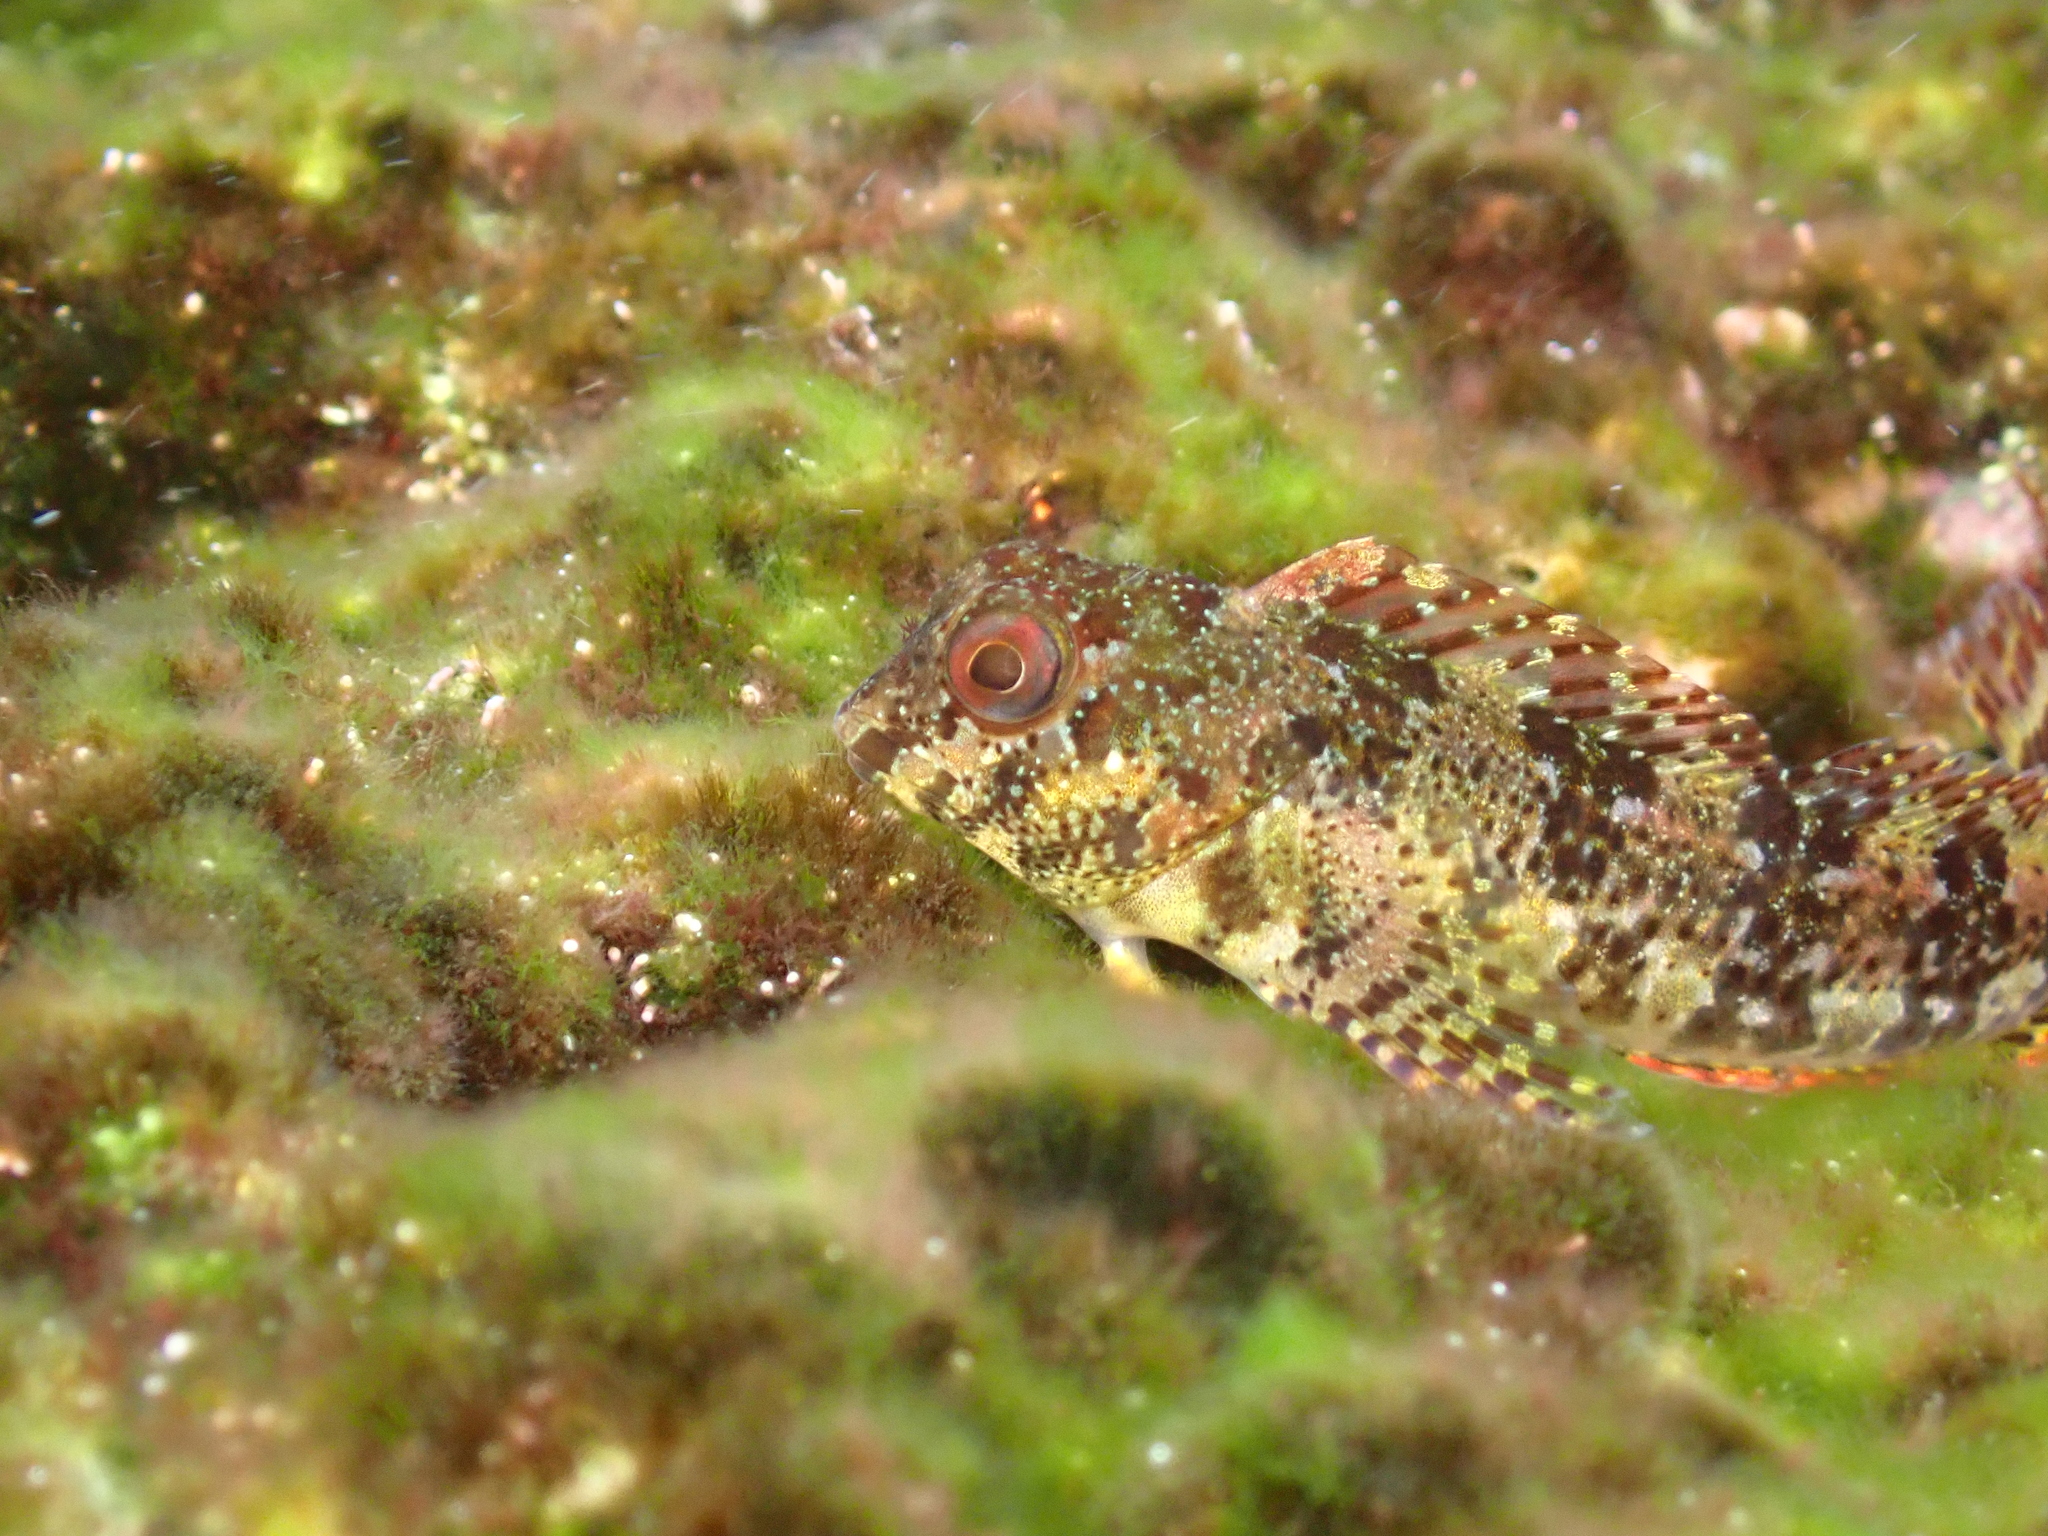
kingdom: Animalia
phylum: Chordata
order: Perciformes
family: Blenniidae
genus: Lipophrys
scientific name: Lipophrys trigloides
